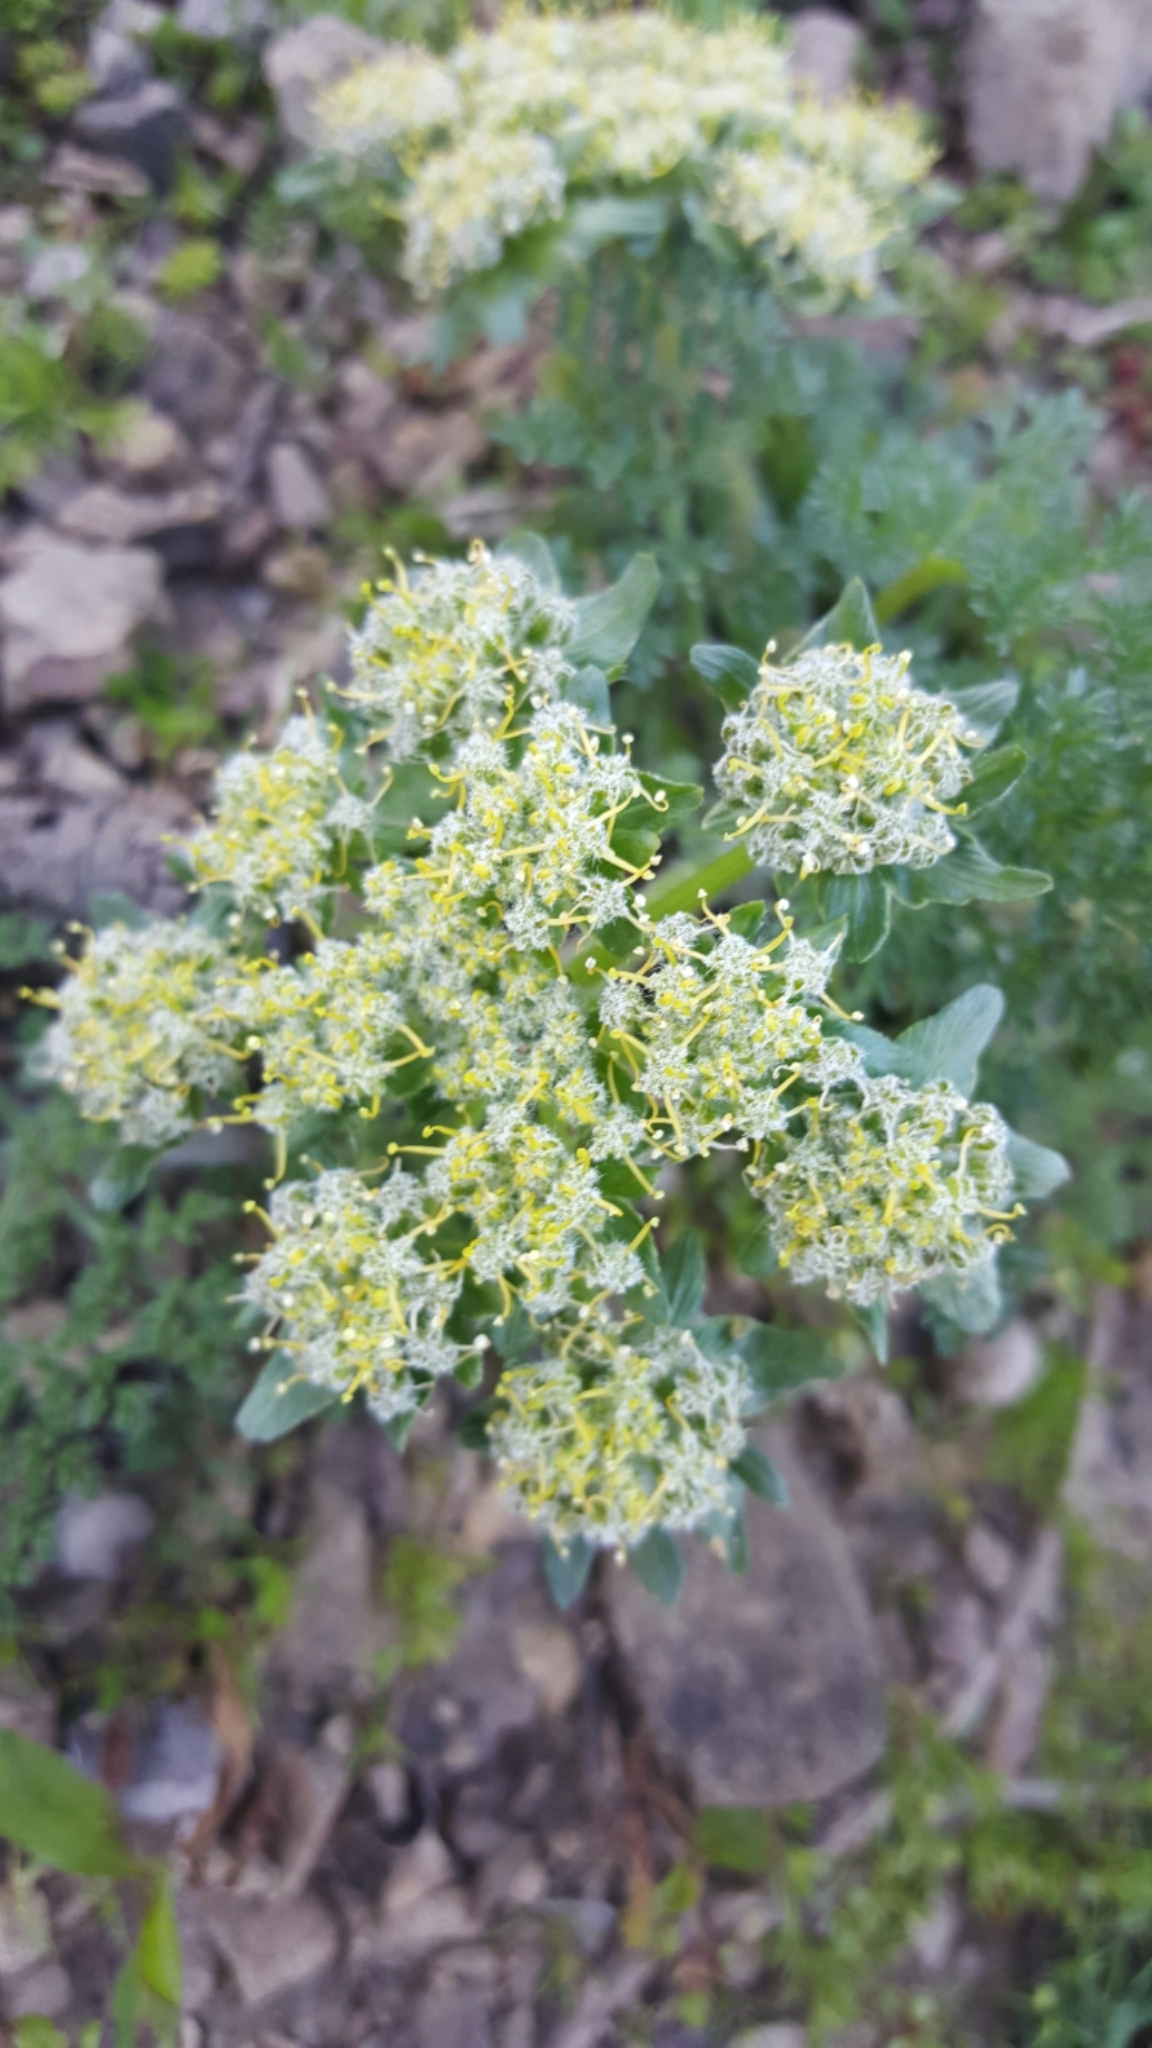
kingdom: Plantae
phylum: Tracheophyta
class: Magnoliopsida
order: Apiales
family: Apiaceae
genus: Lomatium
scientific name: Lomatium dasycarpum
